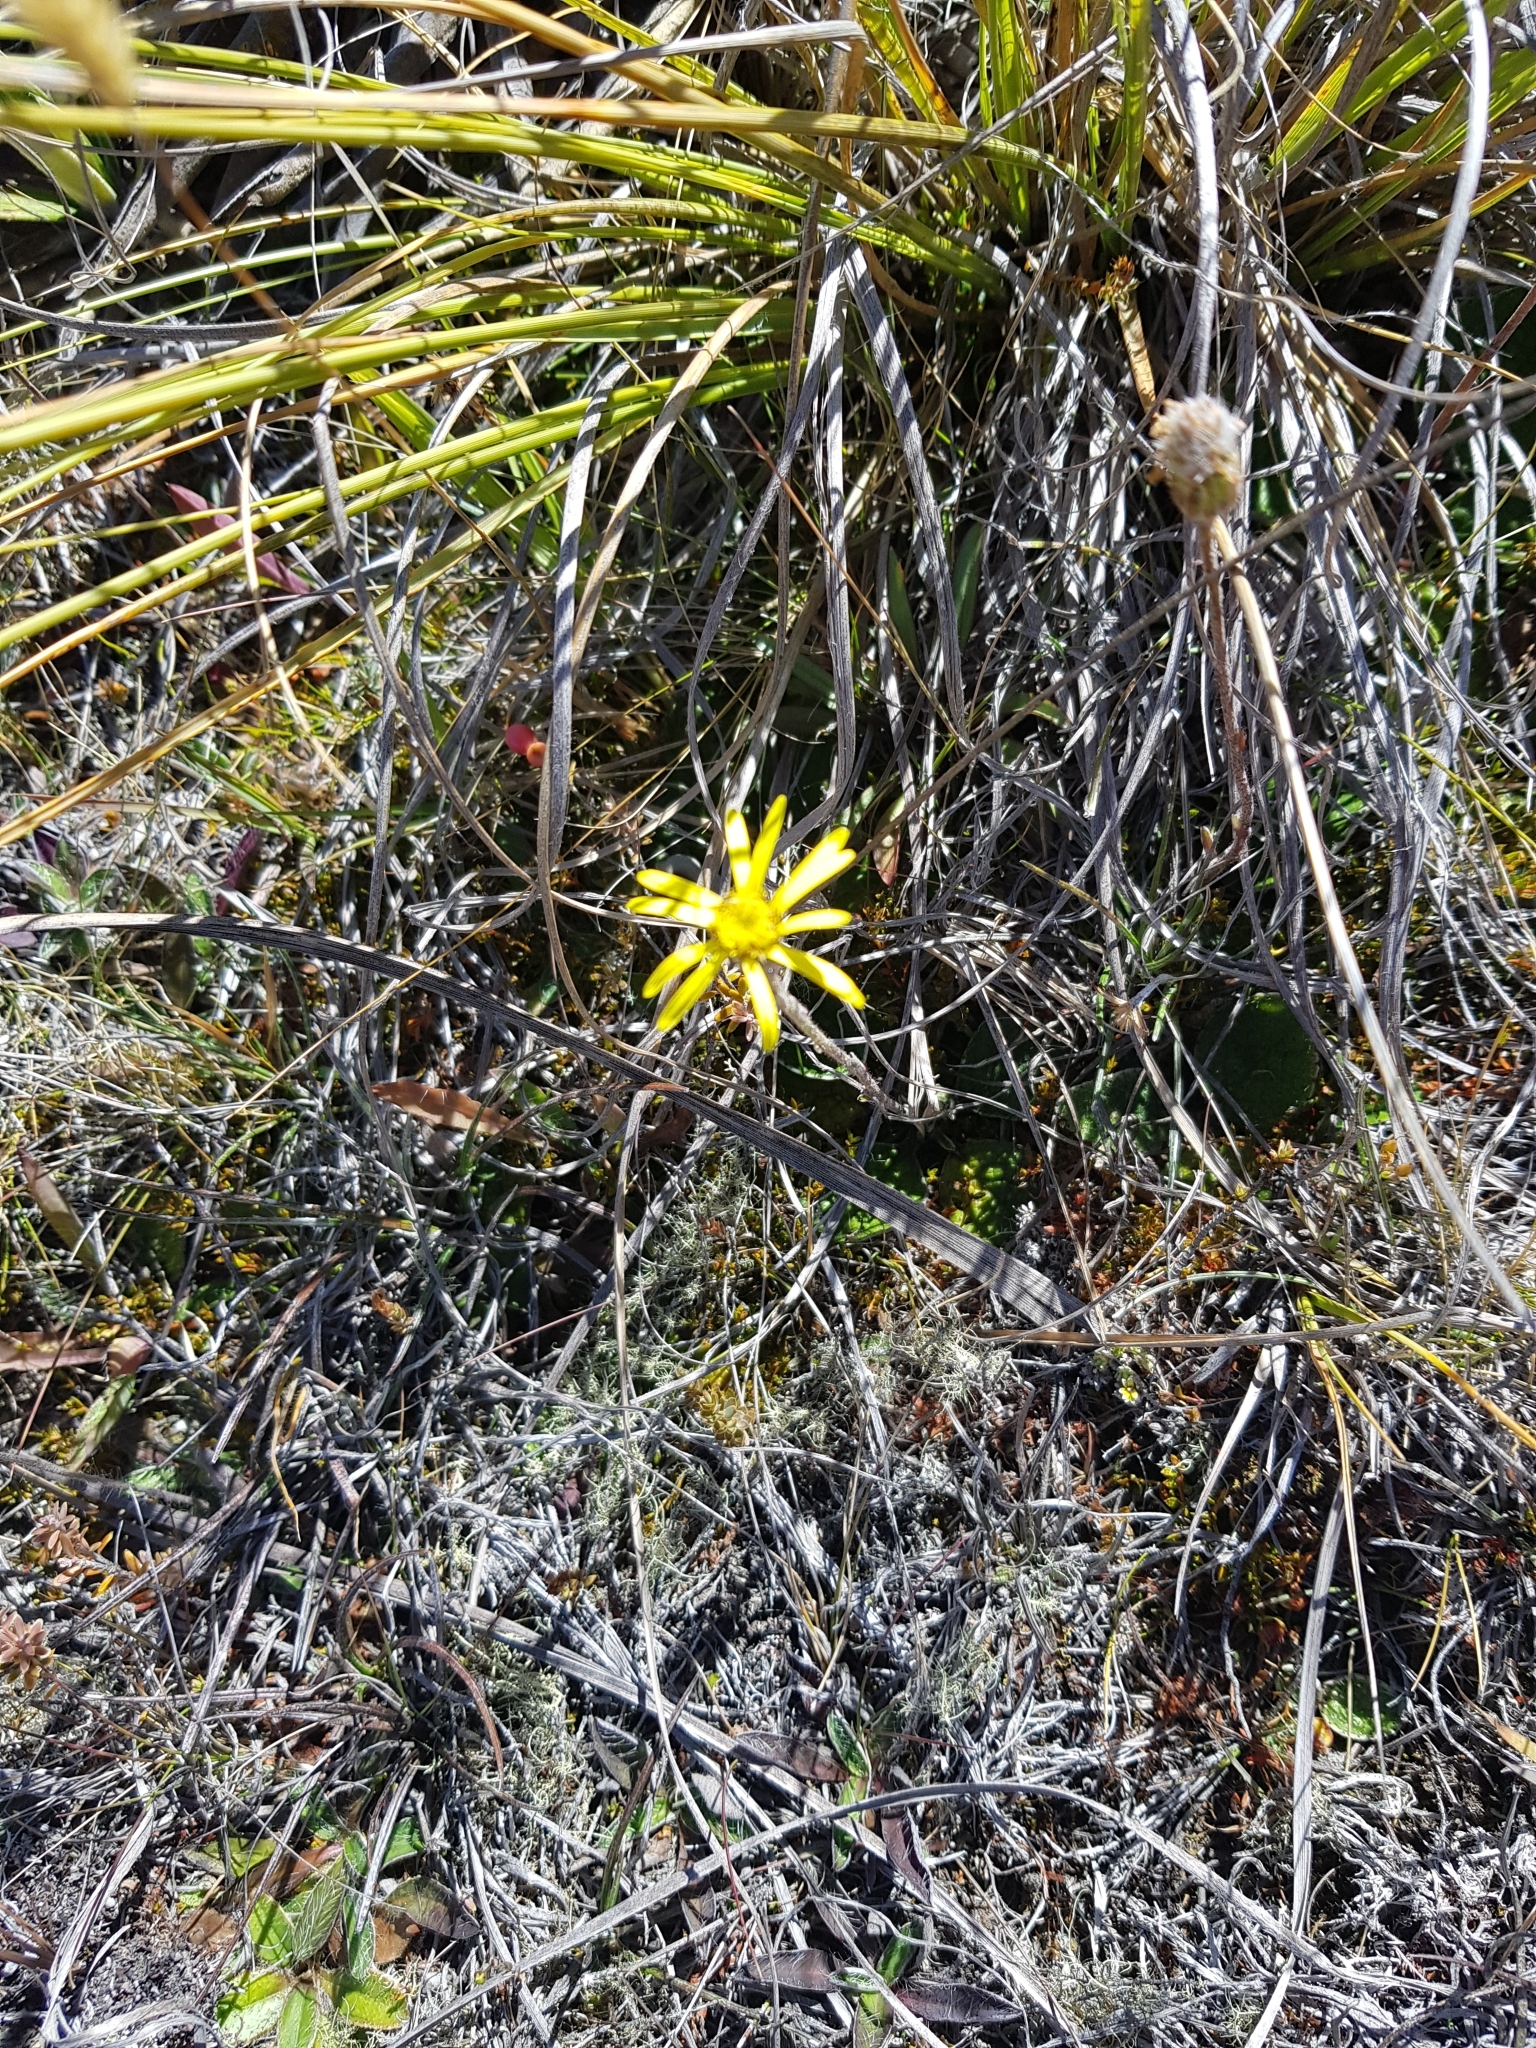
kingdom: Plantae
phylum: Tracheophyta
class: Magnoliopsida
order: Asterales
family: Asteraceae
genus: Brachyglottis
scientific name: Brachyglottis lagopus
